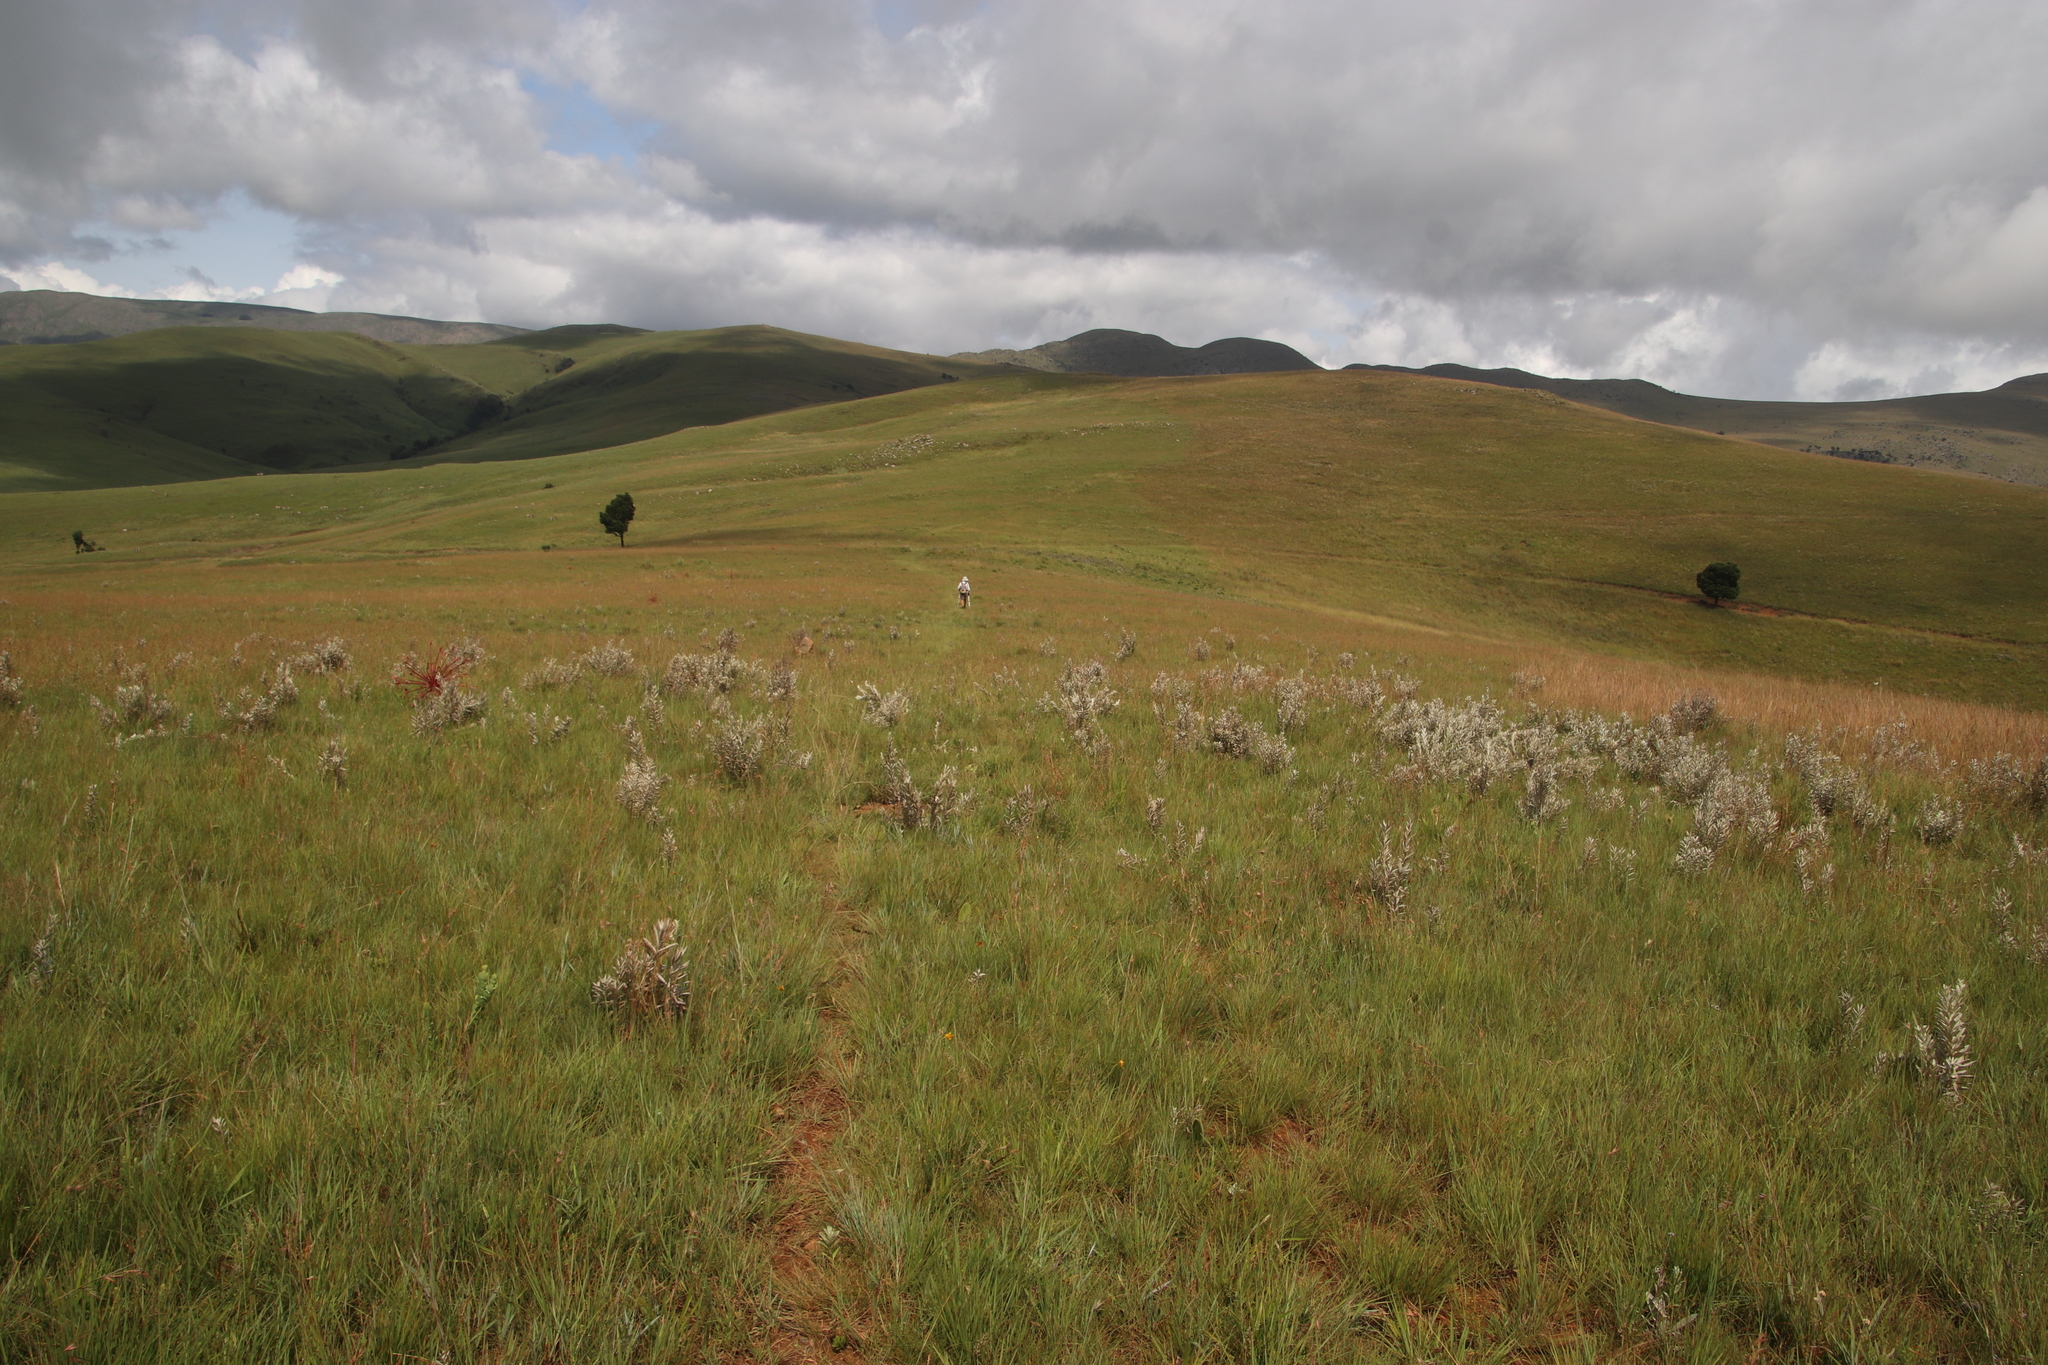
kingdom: Plantae
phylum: Tracheophyta
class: Magnoliopsida
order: Lamiales
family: Orobanchaceae
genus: Sopubia
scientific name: Sopubia cana
